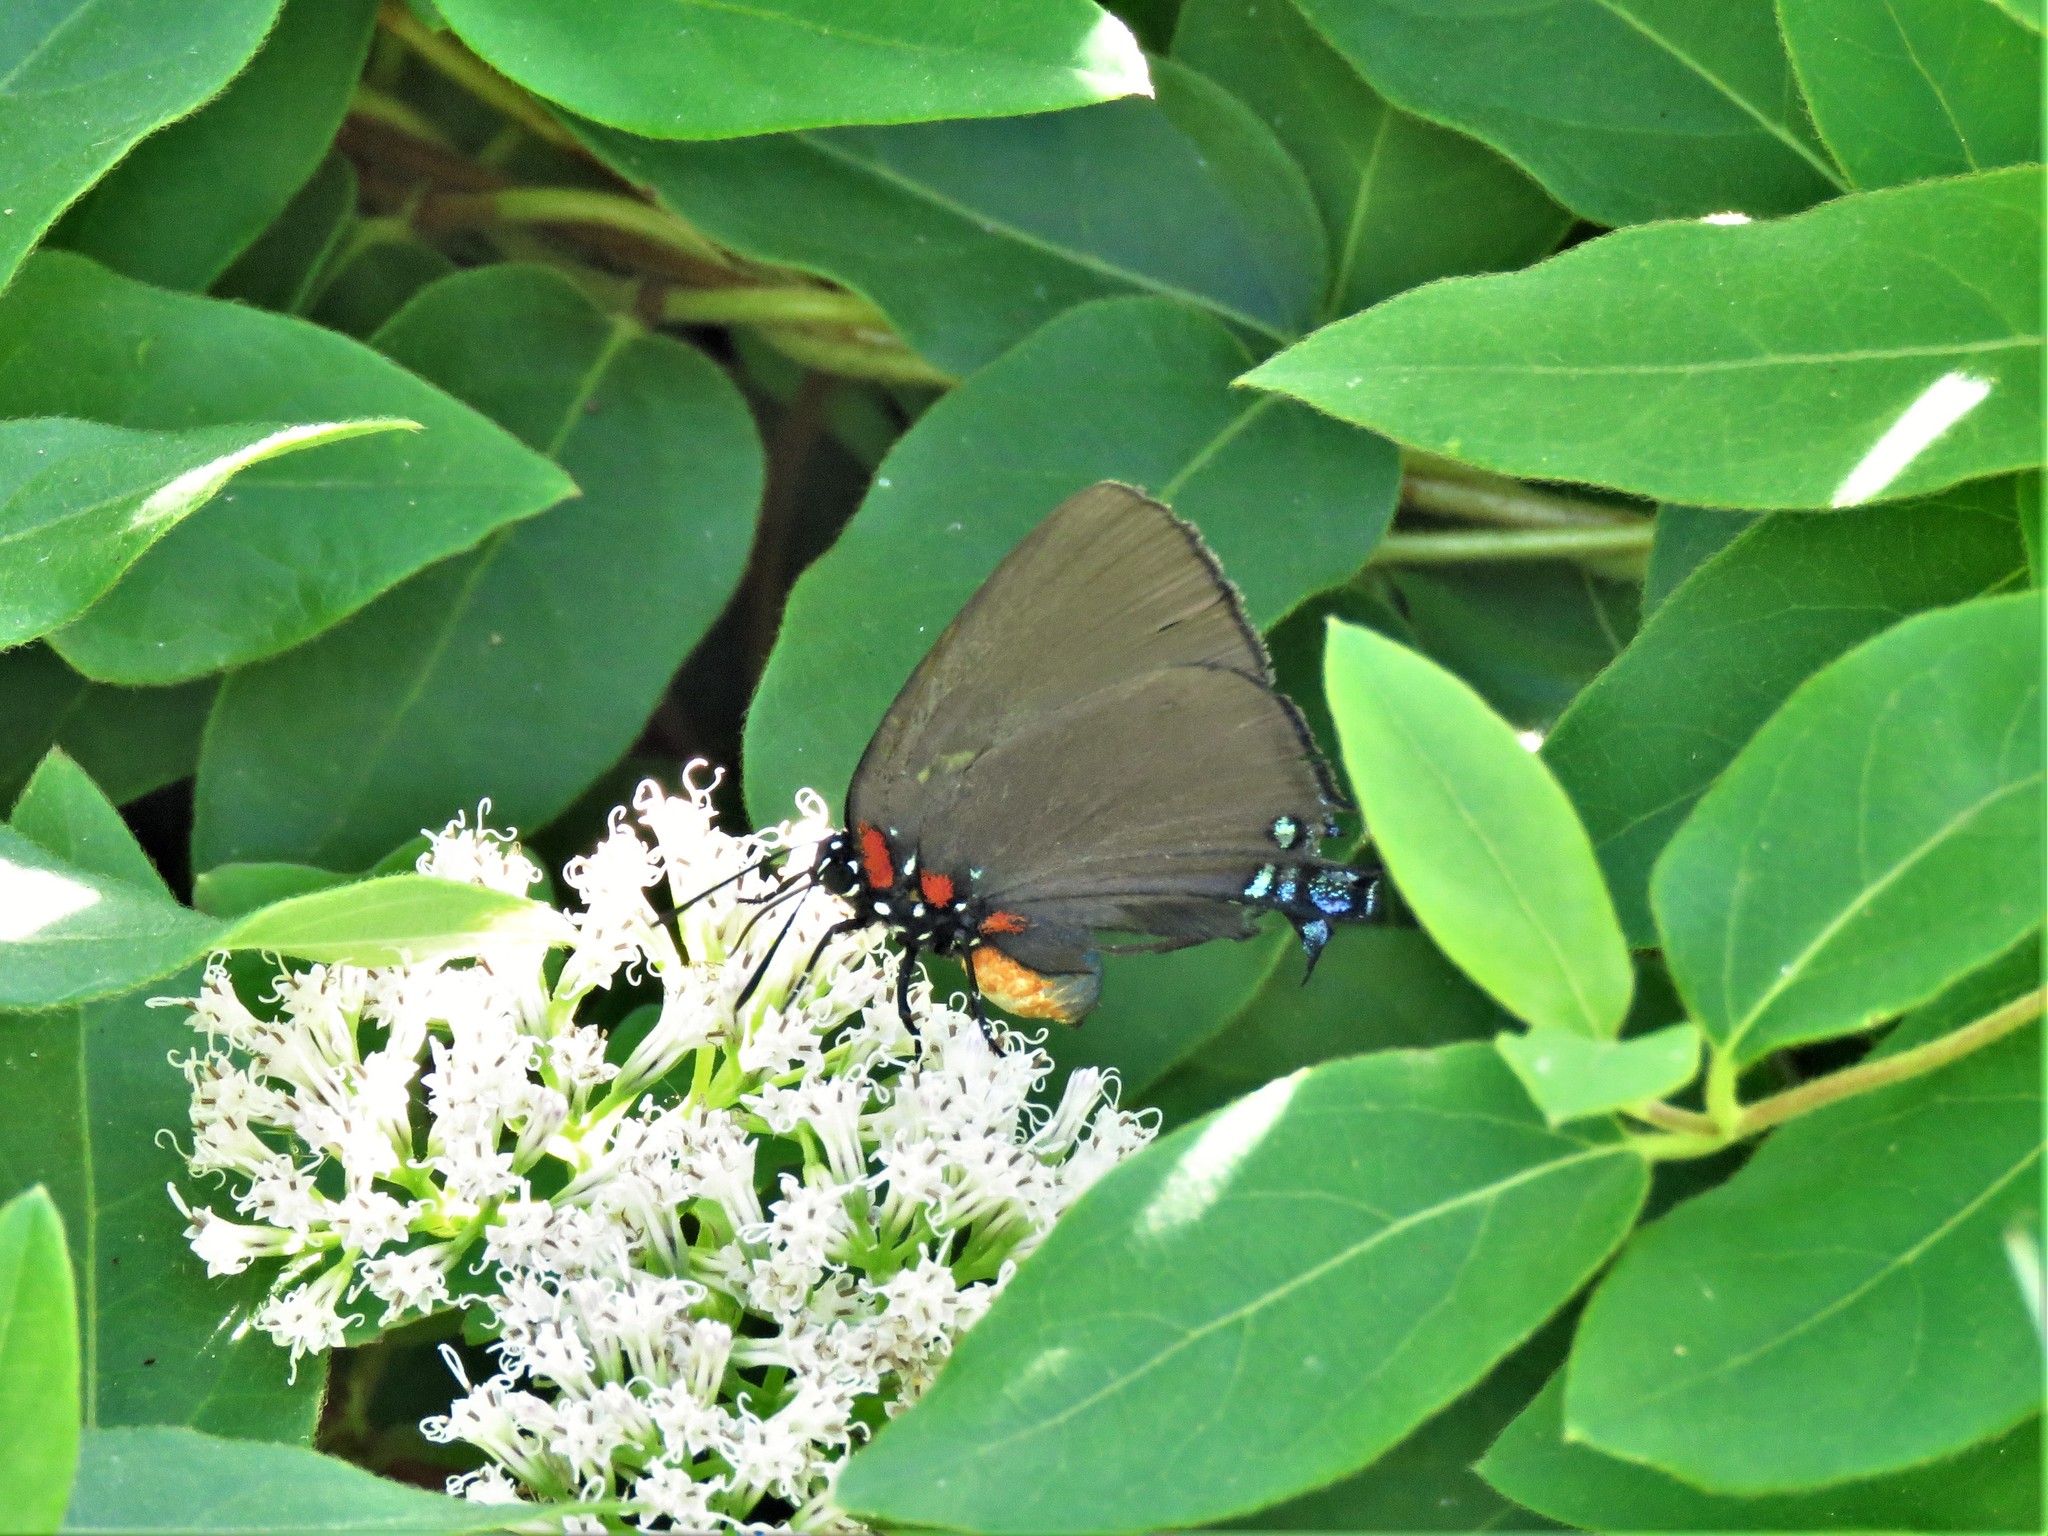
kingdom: Animalia
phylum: Arthropoda
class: Insecta
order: Lepidoptera
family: Lycaenidae
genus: Atlides
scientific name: Atlides halesus
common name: Great purple hairstreak
